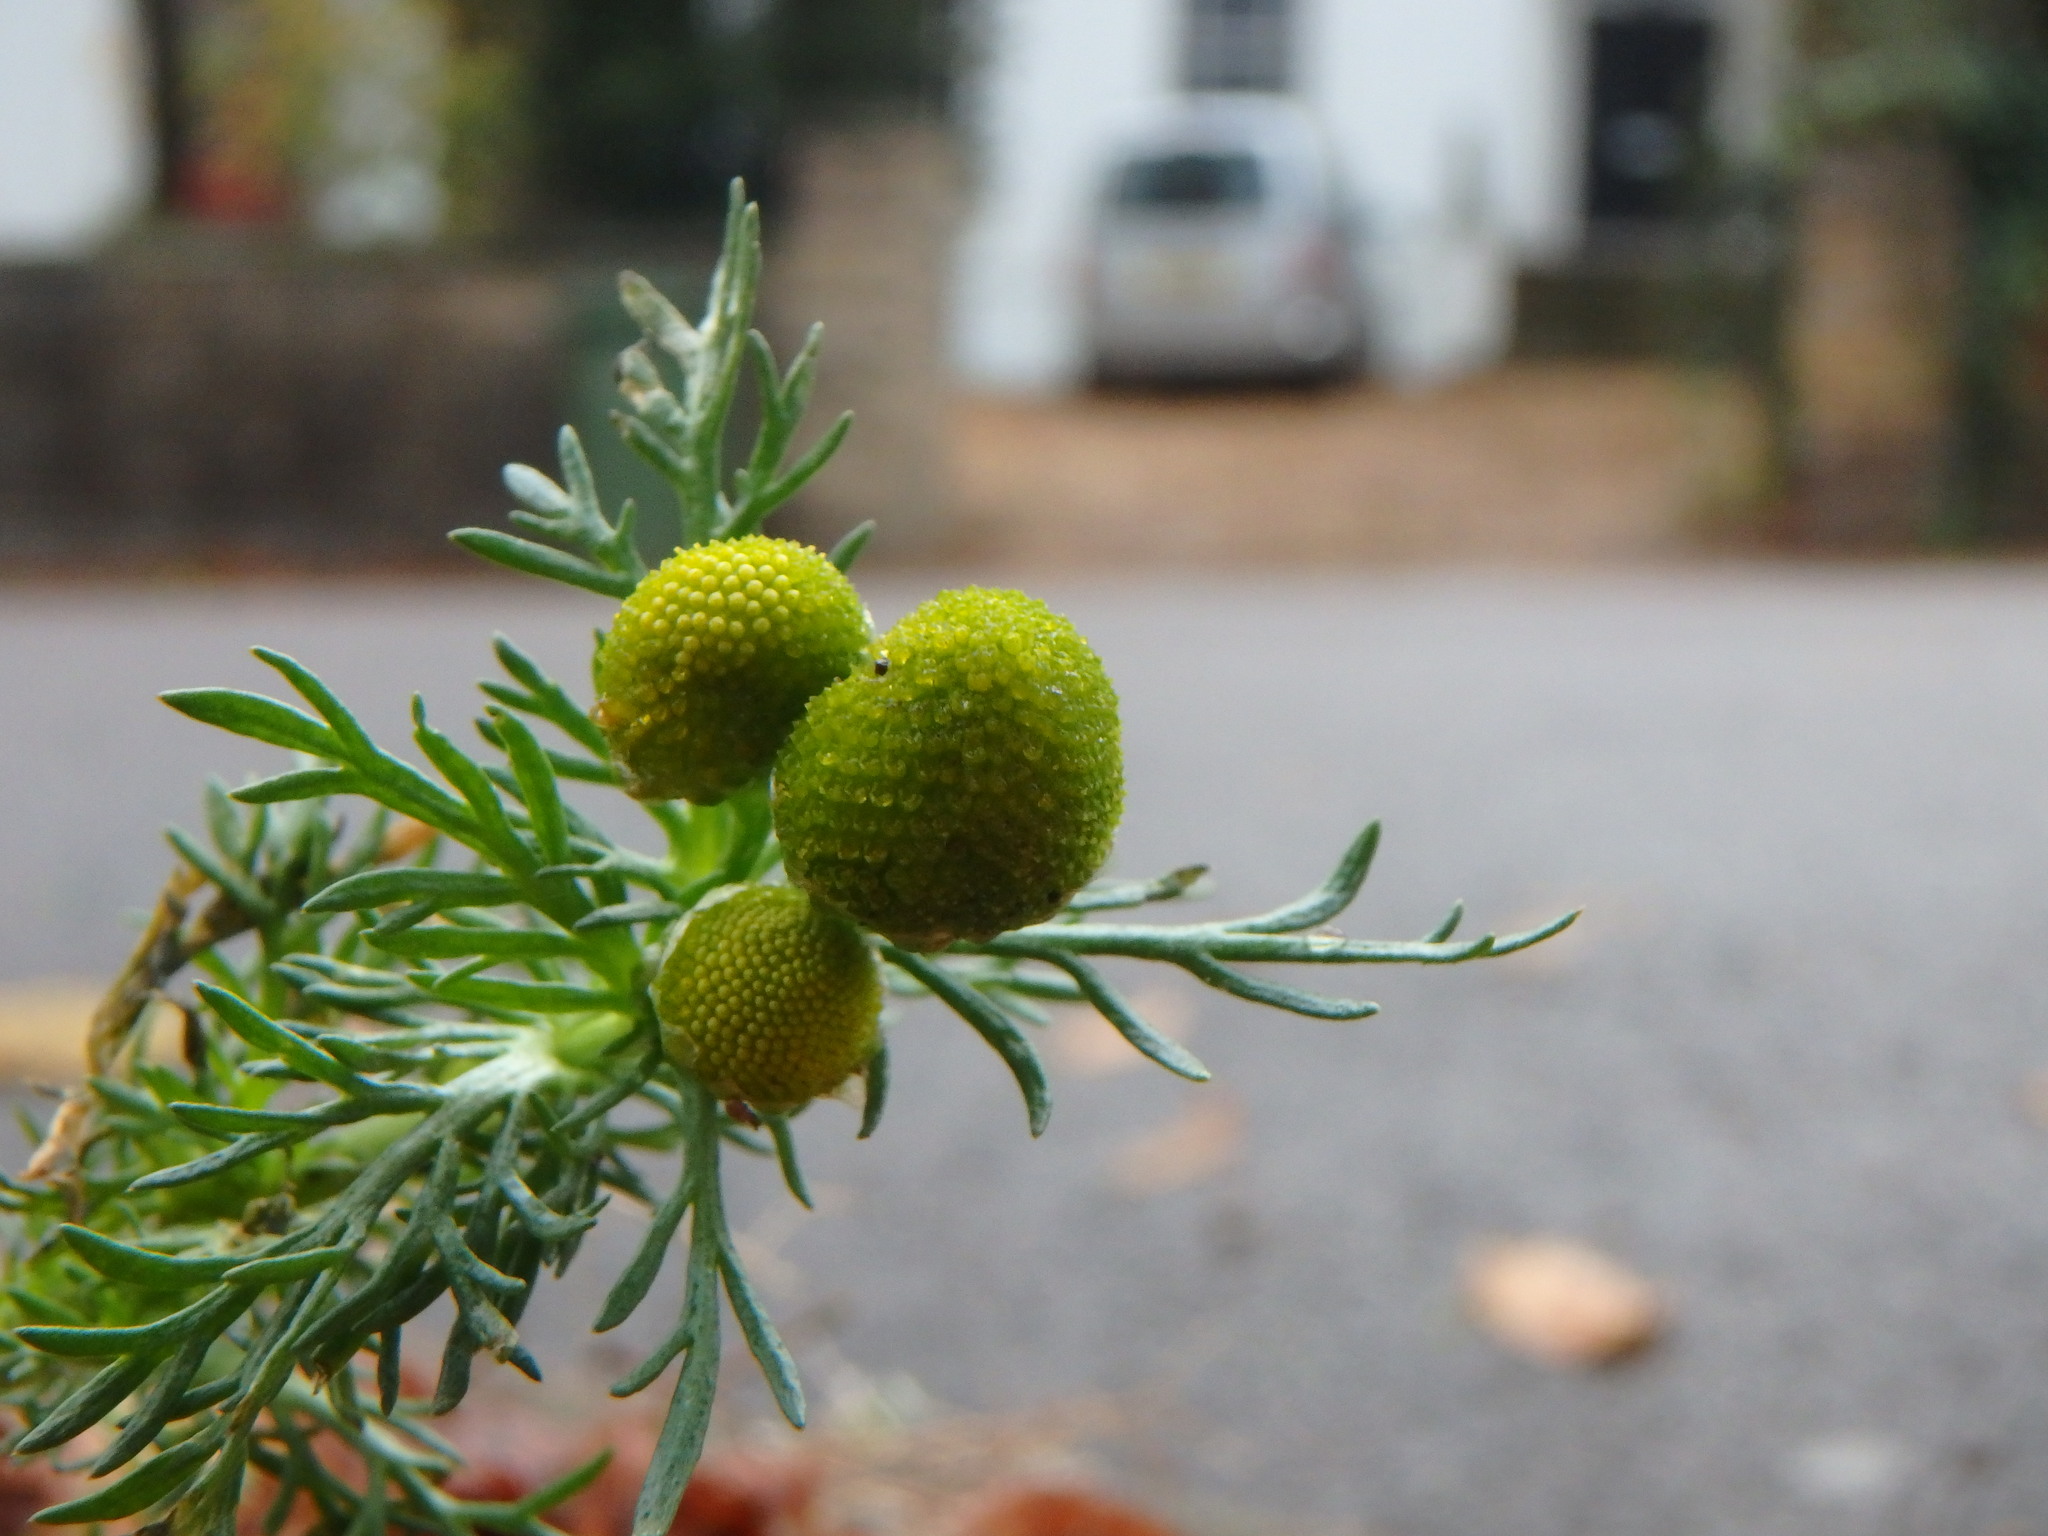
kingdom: Plantae
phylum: Tracheophyta
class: Magnoliopsida
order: Asterales
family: Asteraceae
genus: Matricaria
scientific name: Matricaria discoidea
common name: Disc mayweed
